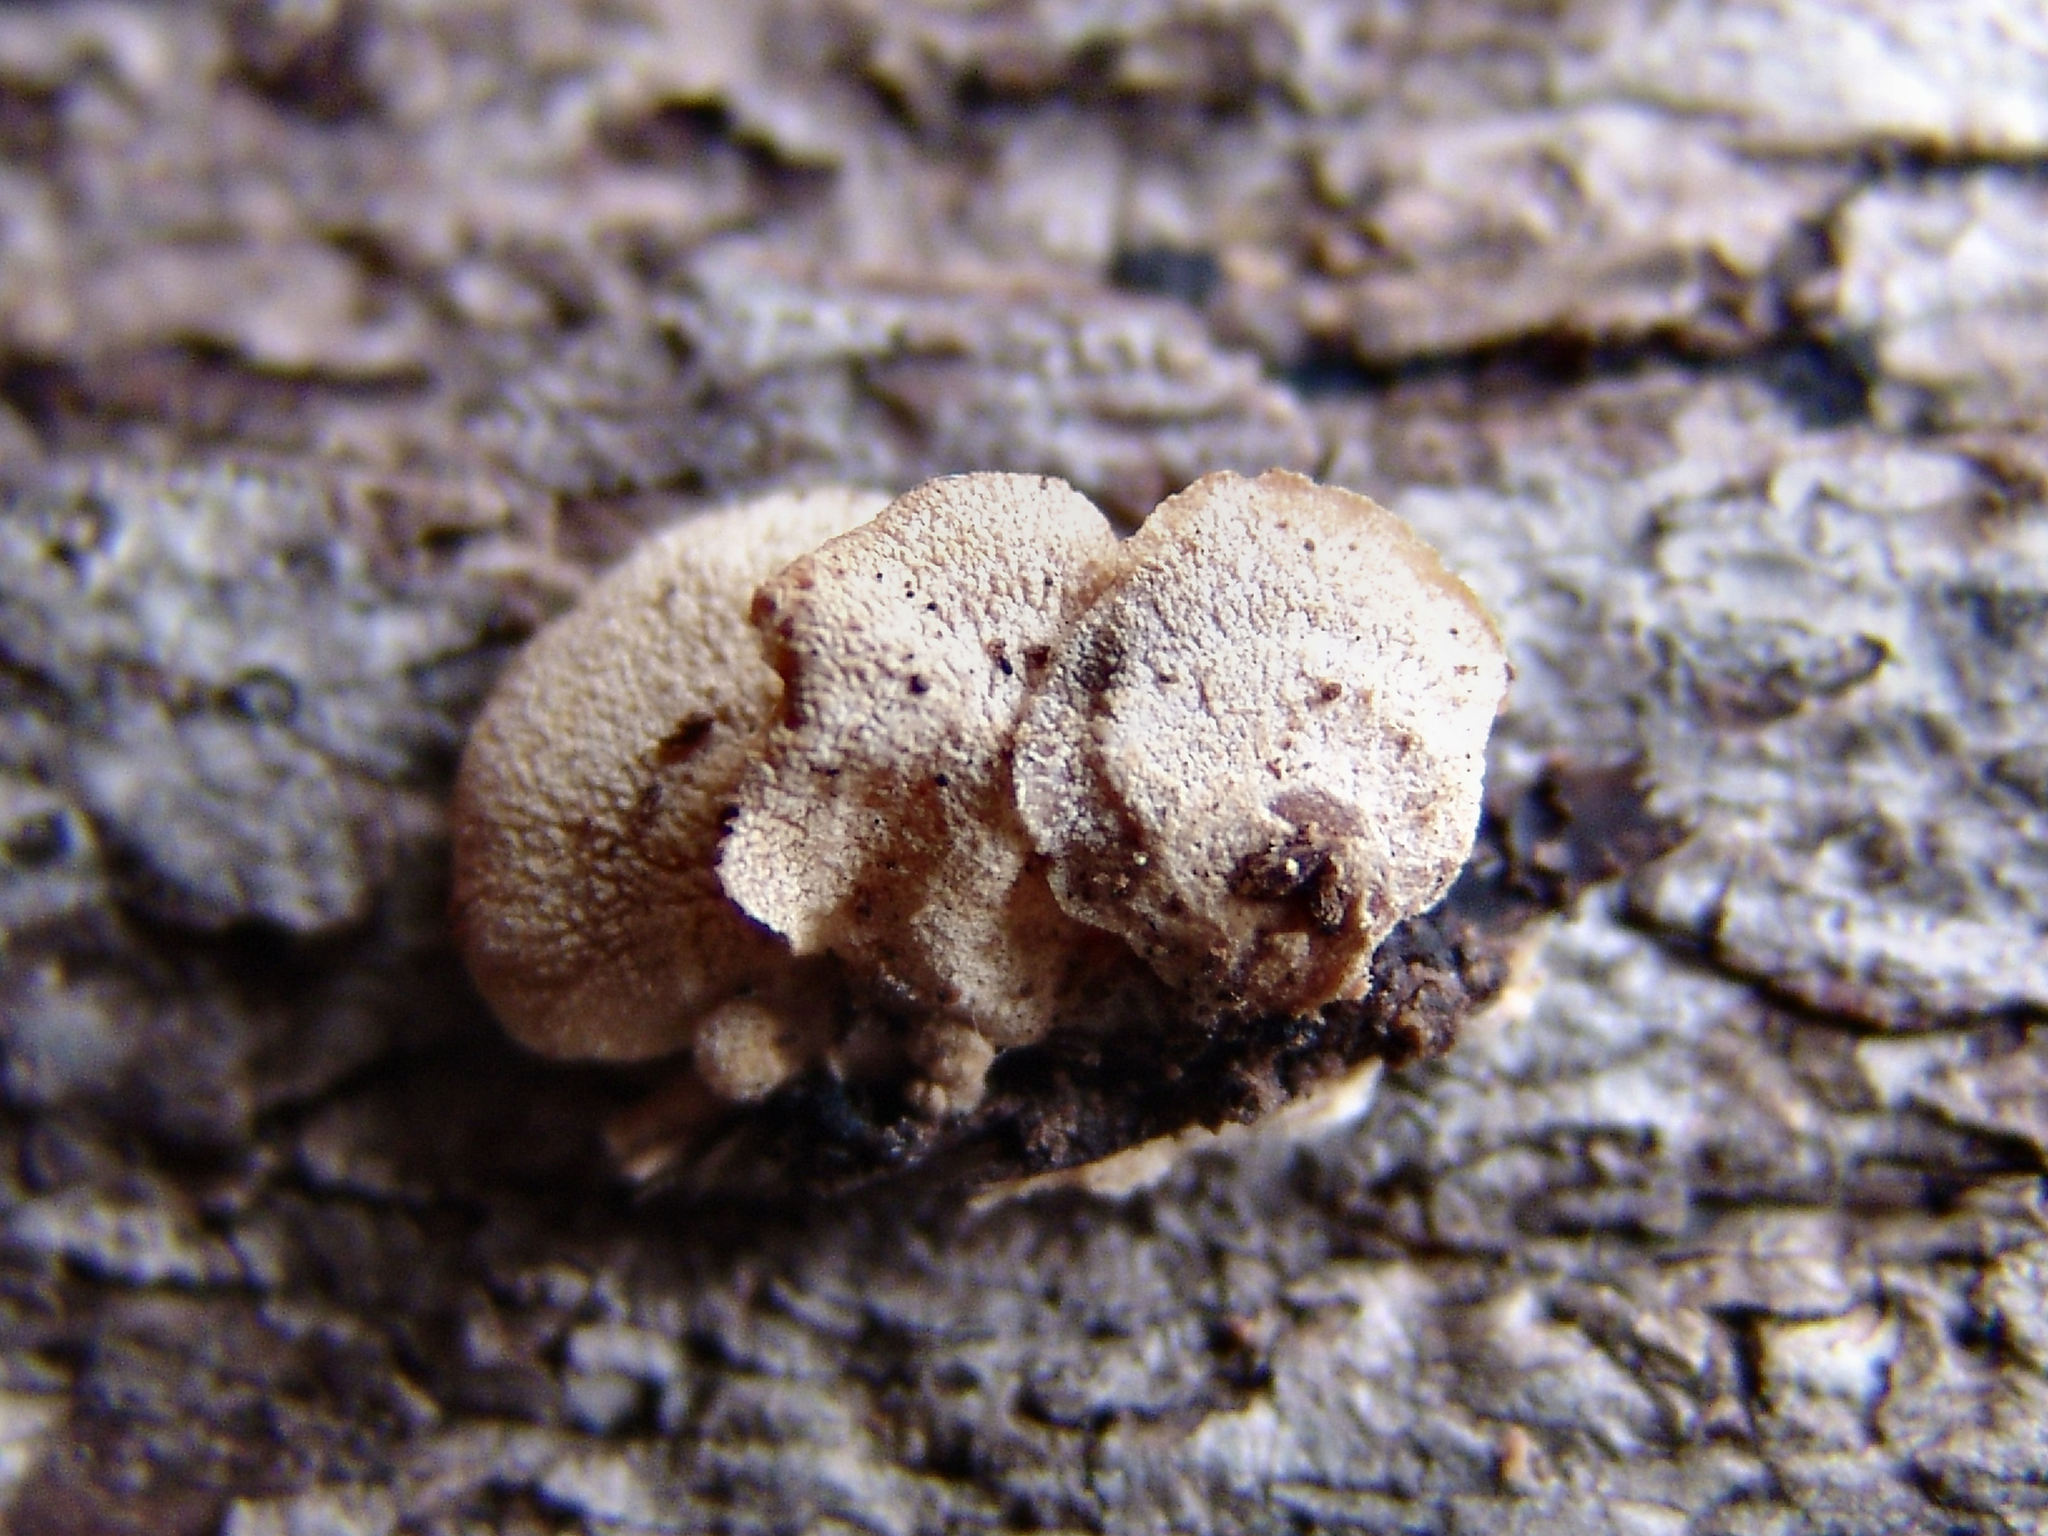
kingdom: Fungi
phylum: Basidiomycota
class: Agaricomycetes
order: Agaricales
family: Mycenaceae
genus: Panellus
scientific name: Panellus stipticus
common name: Bitter oysterling
